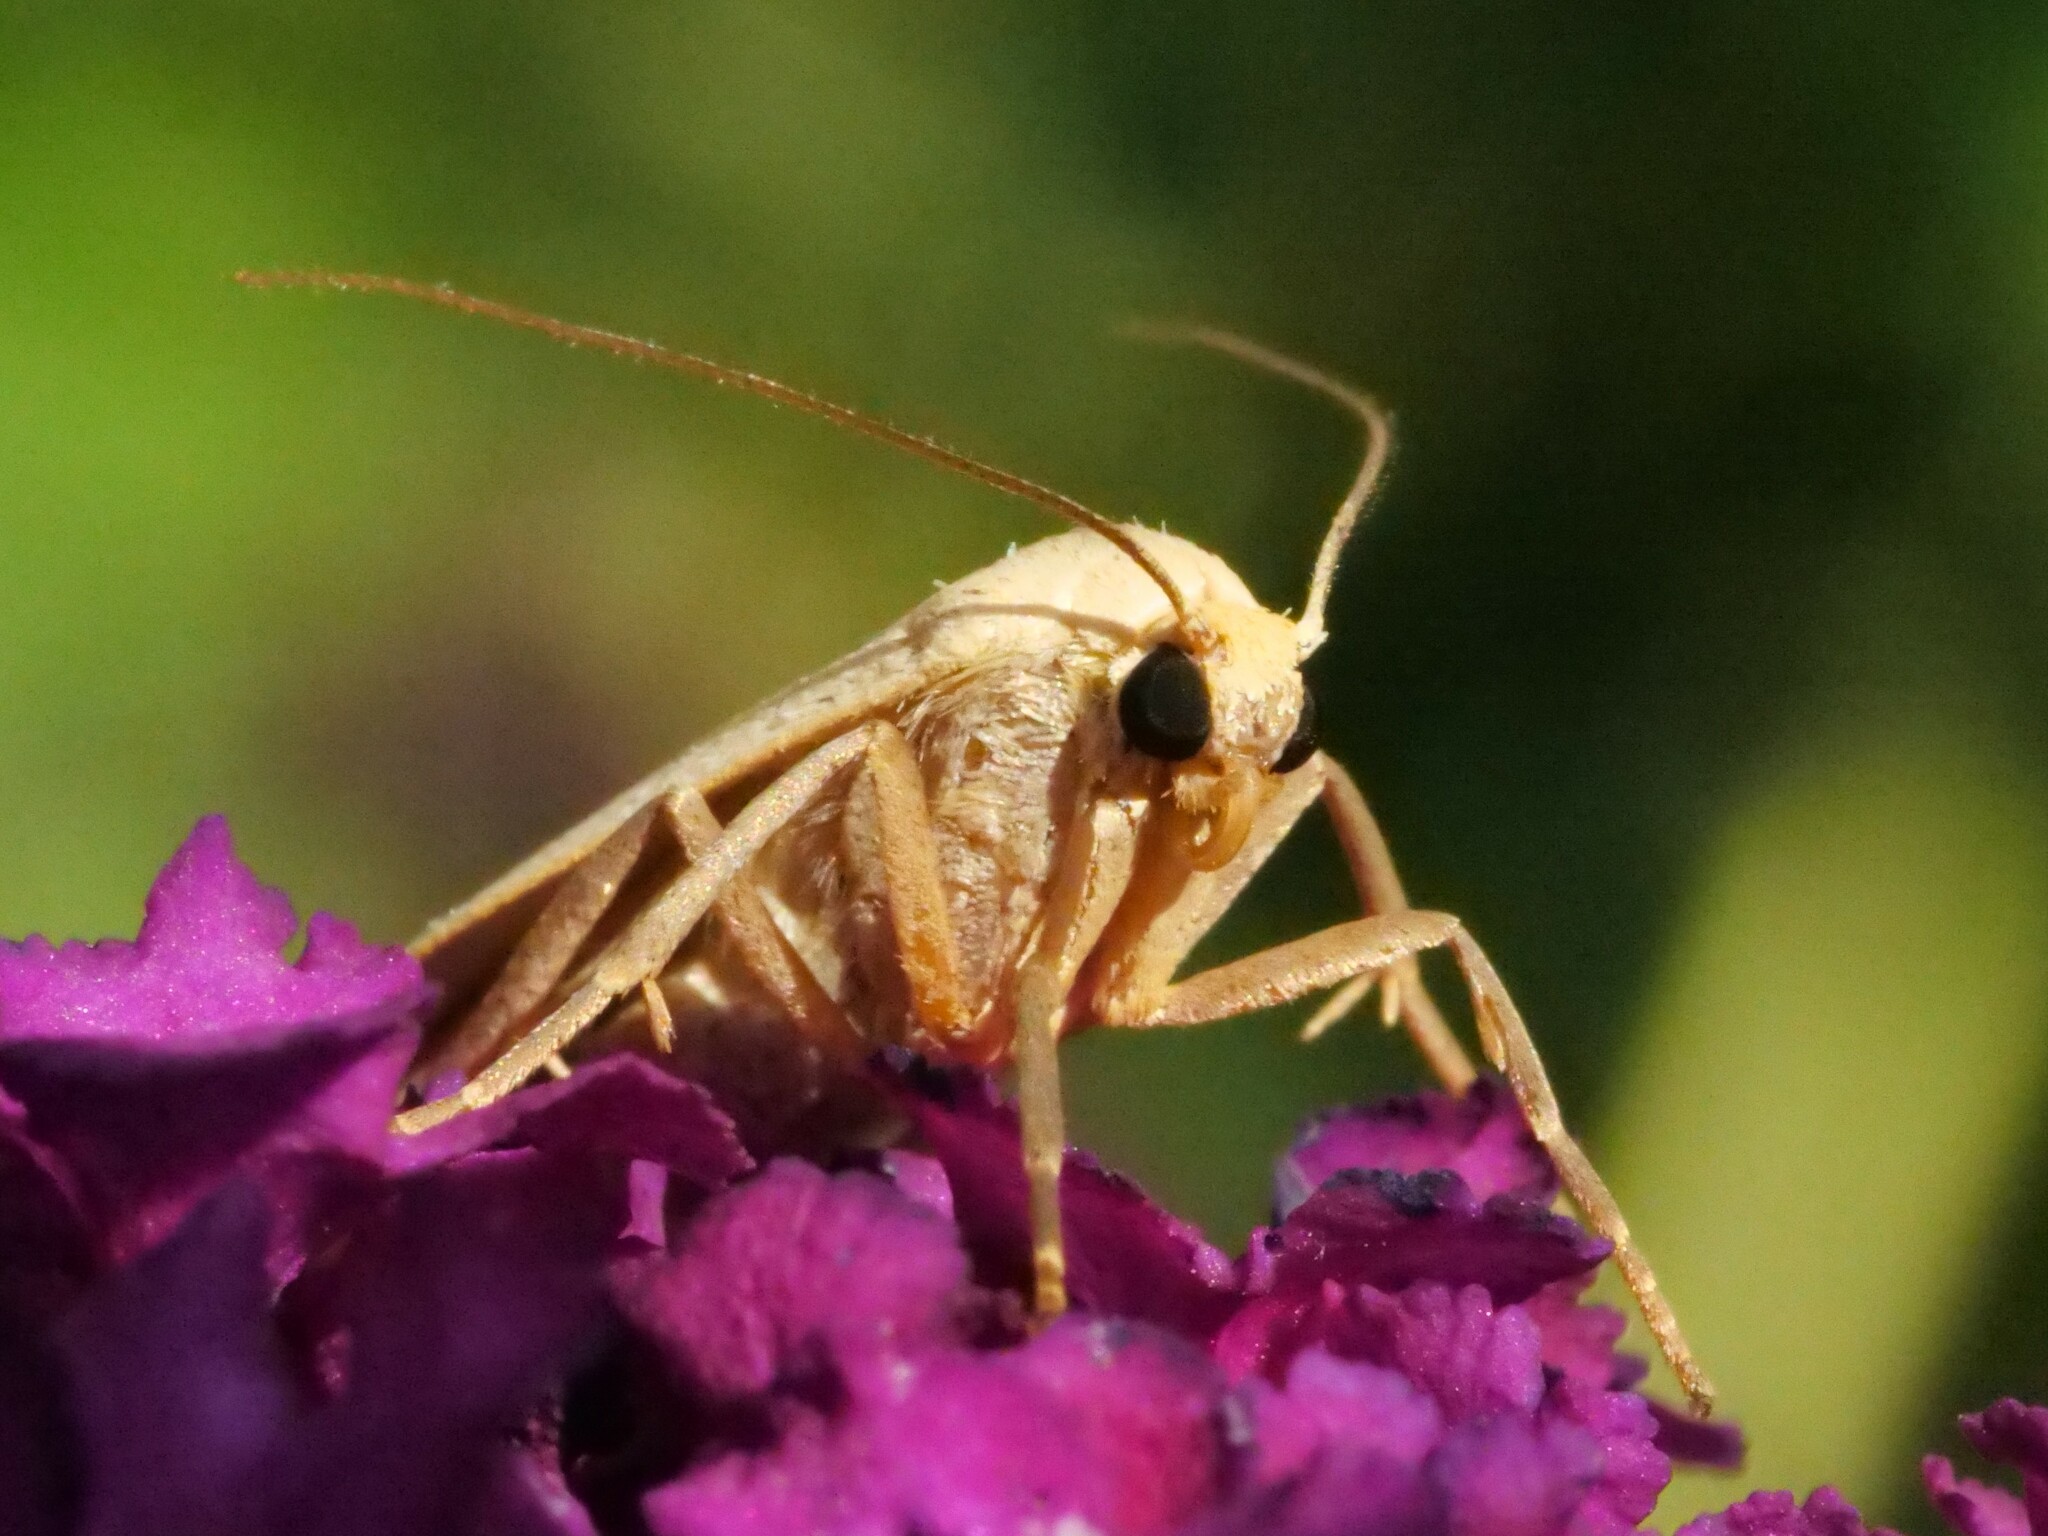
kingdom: Animalia
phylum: Arthropoda
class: Insecta
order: Lepidoptera
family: Erebidae
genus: Collita
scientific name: Collita griseola
